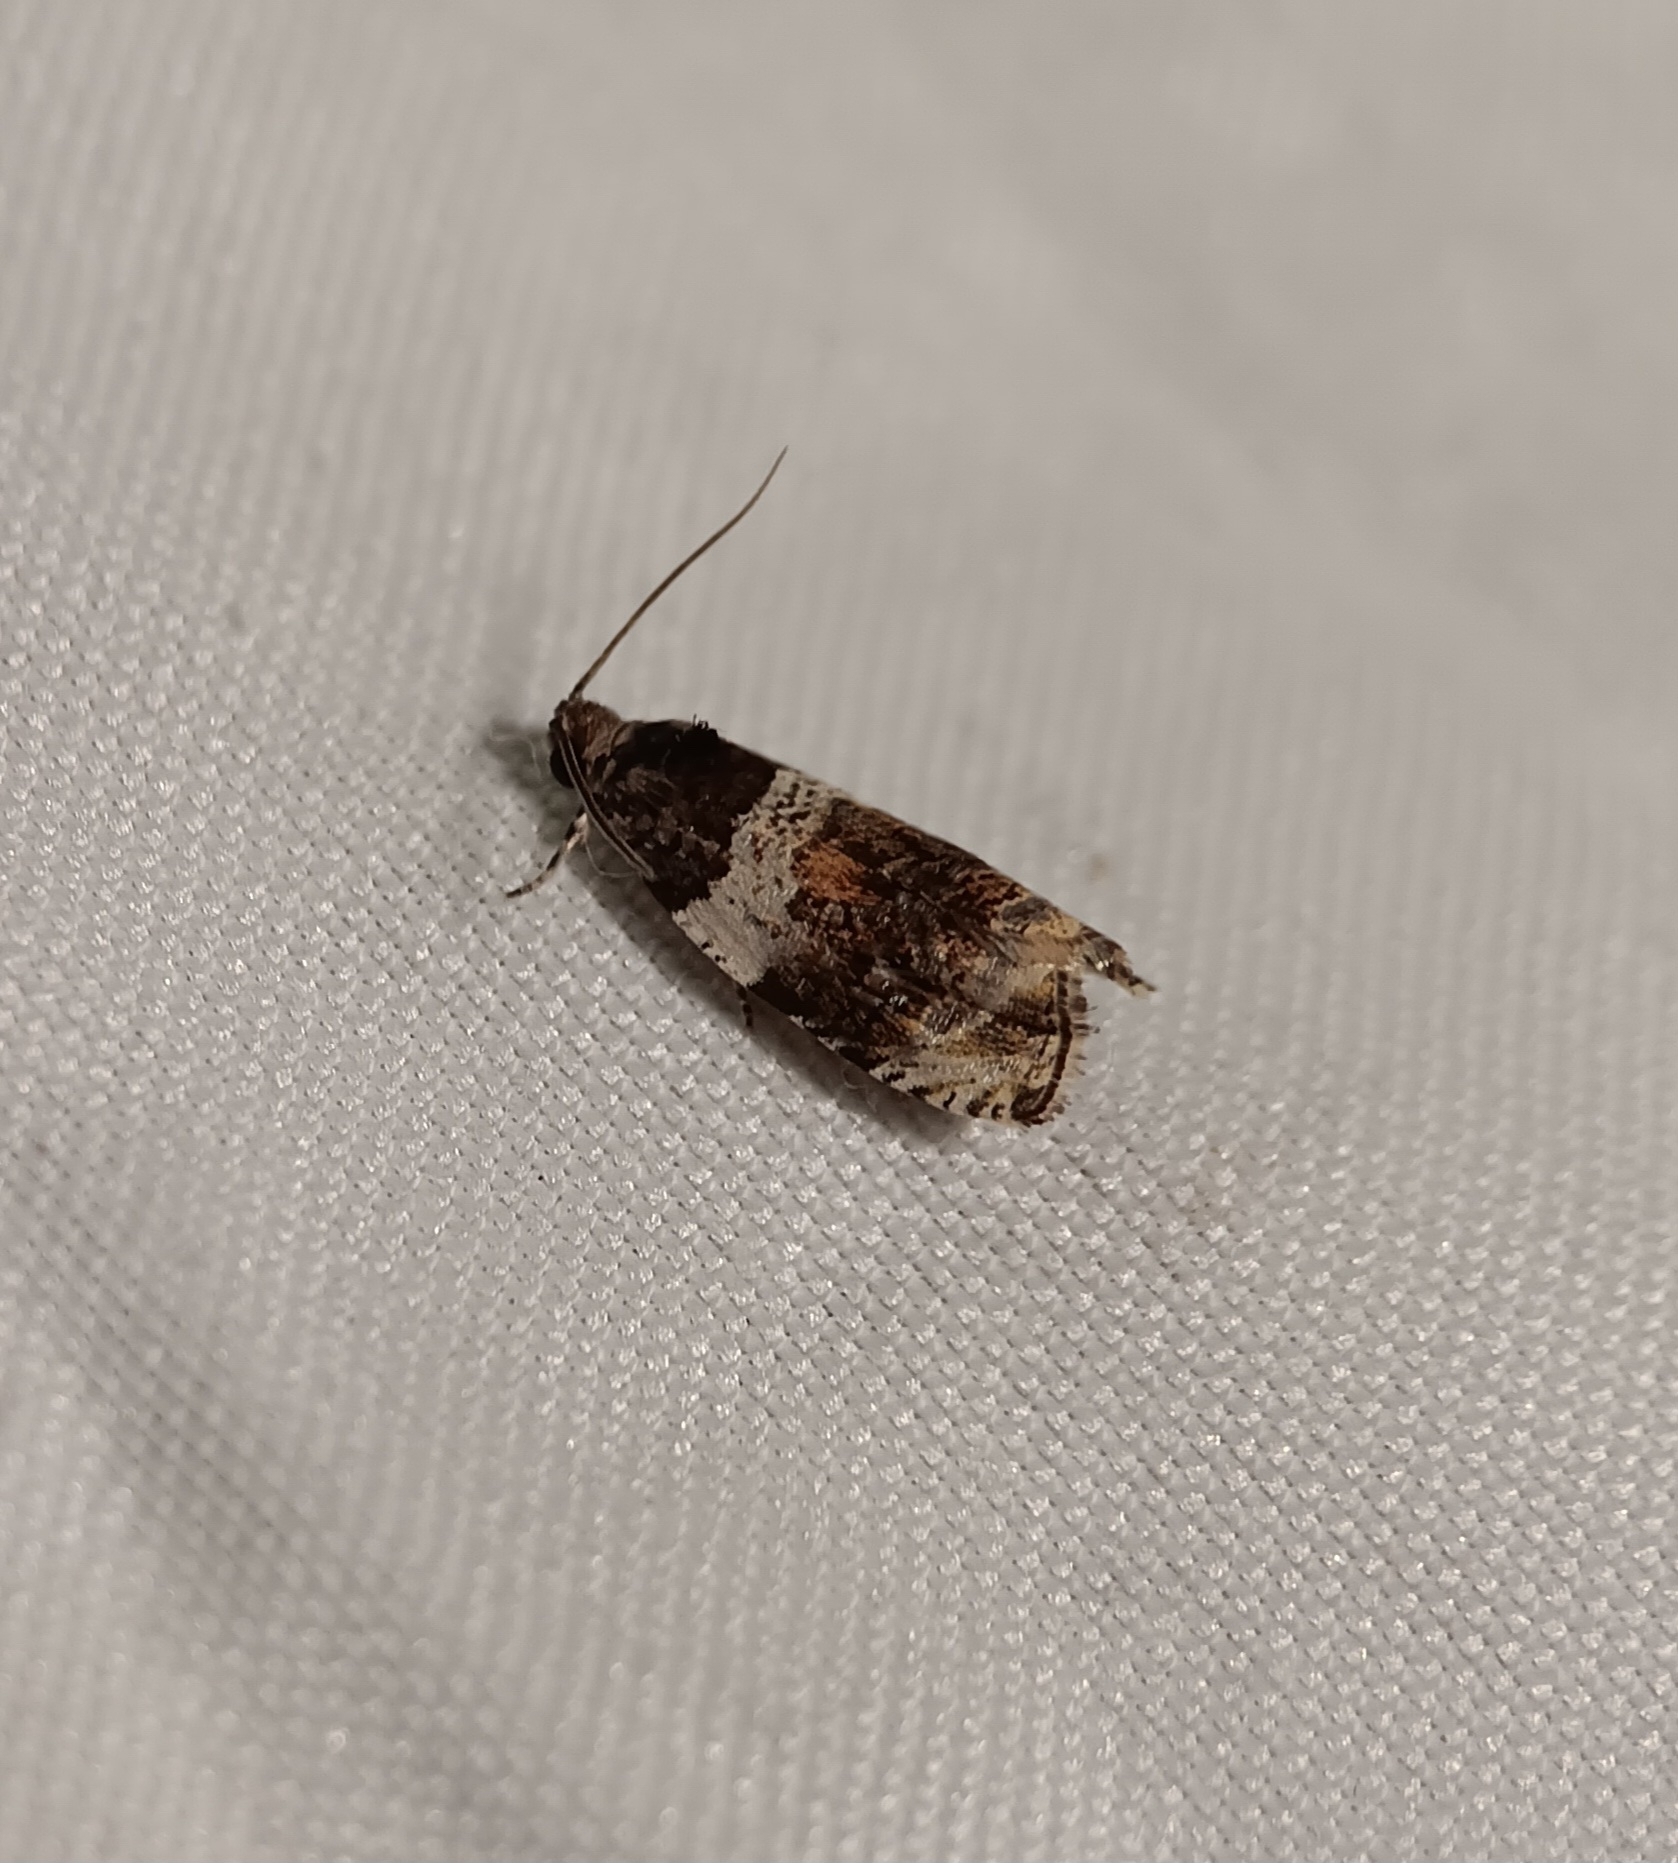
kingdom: Animalia
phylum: Arthropoda
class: Insecta
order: Lepidoptera
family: Tortricidae
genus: Olethreutes
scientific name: Olethreutes fasciatana
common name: Banded olethreutes moth
